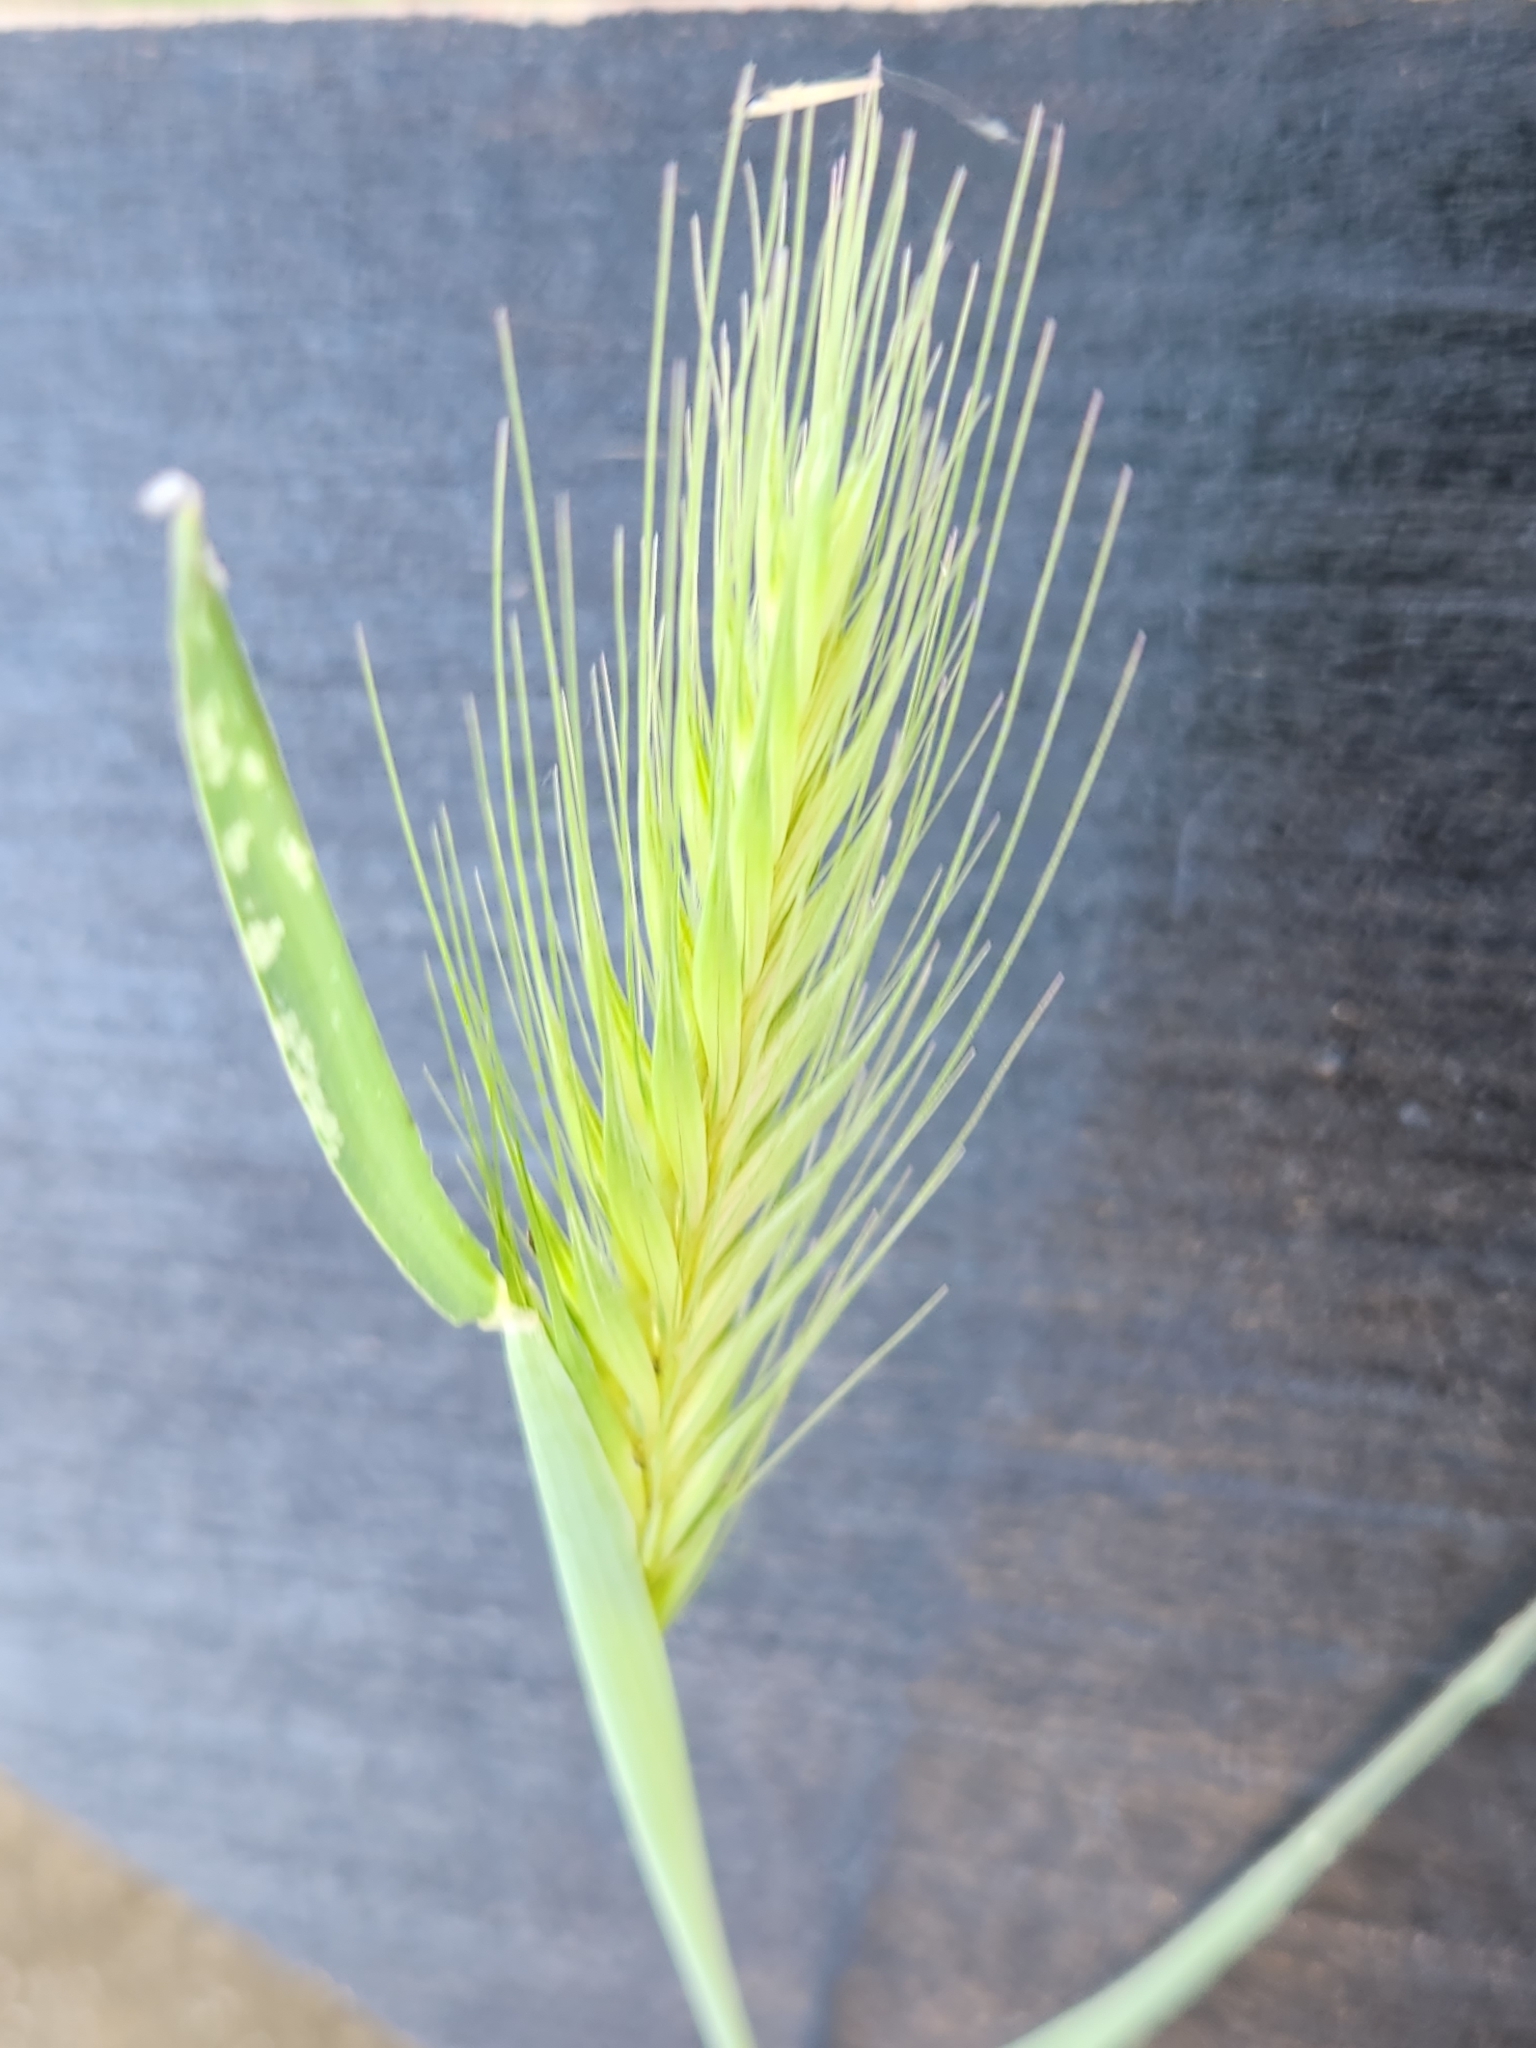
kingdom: Plantae
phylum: Tracheophyta
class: Liliopsida
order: Poales
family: Poaceae
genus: Hordeum
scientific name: Hordeum murinum
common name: Wall barley
